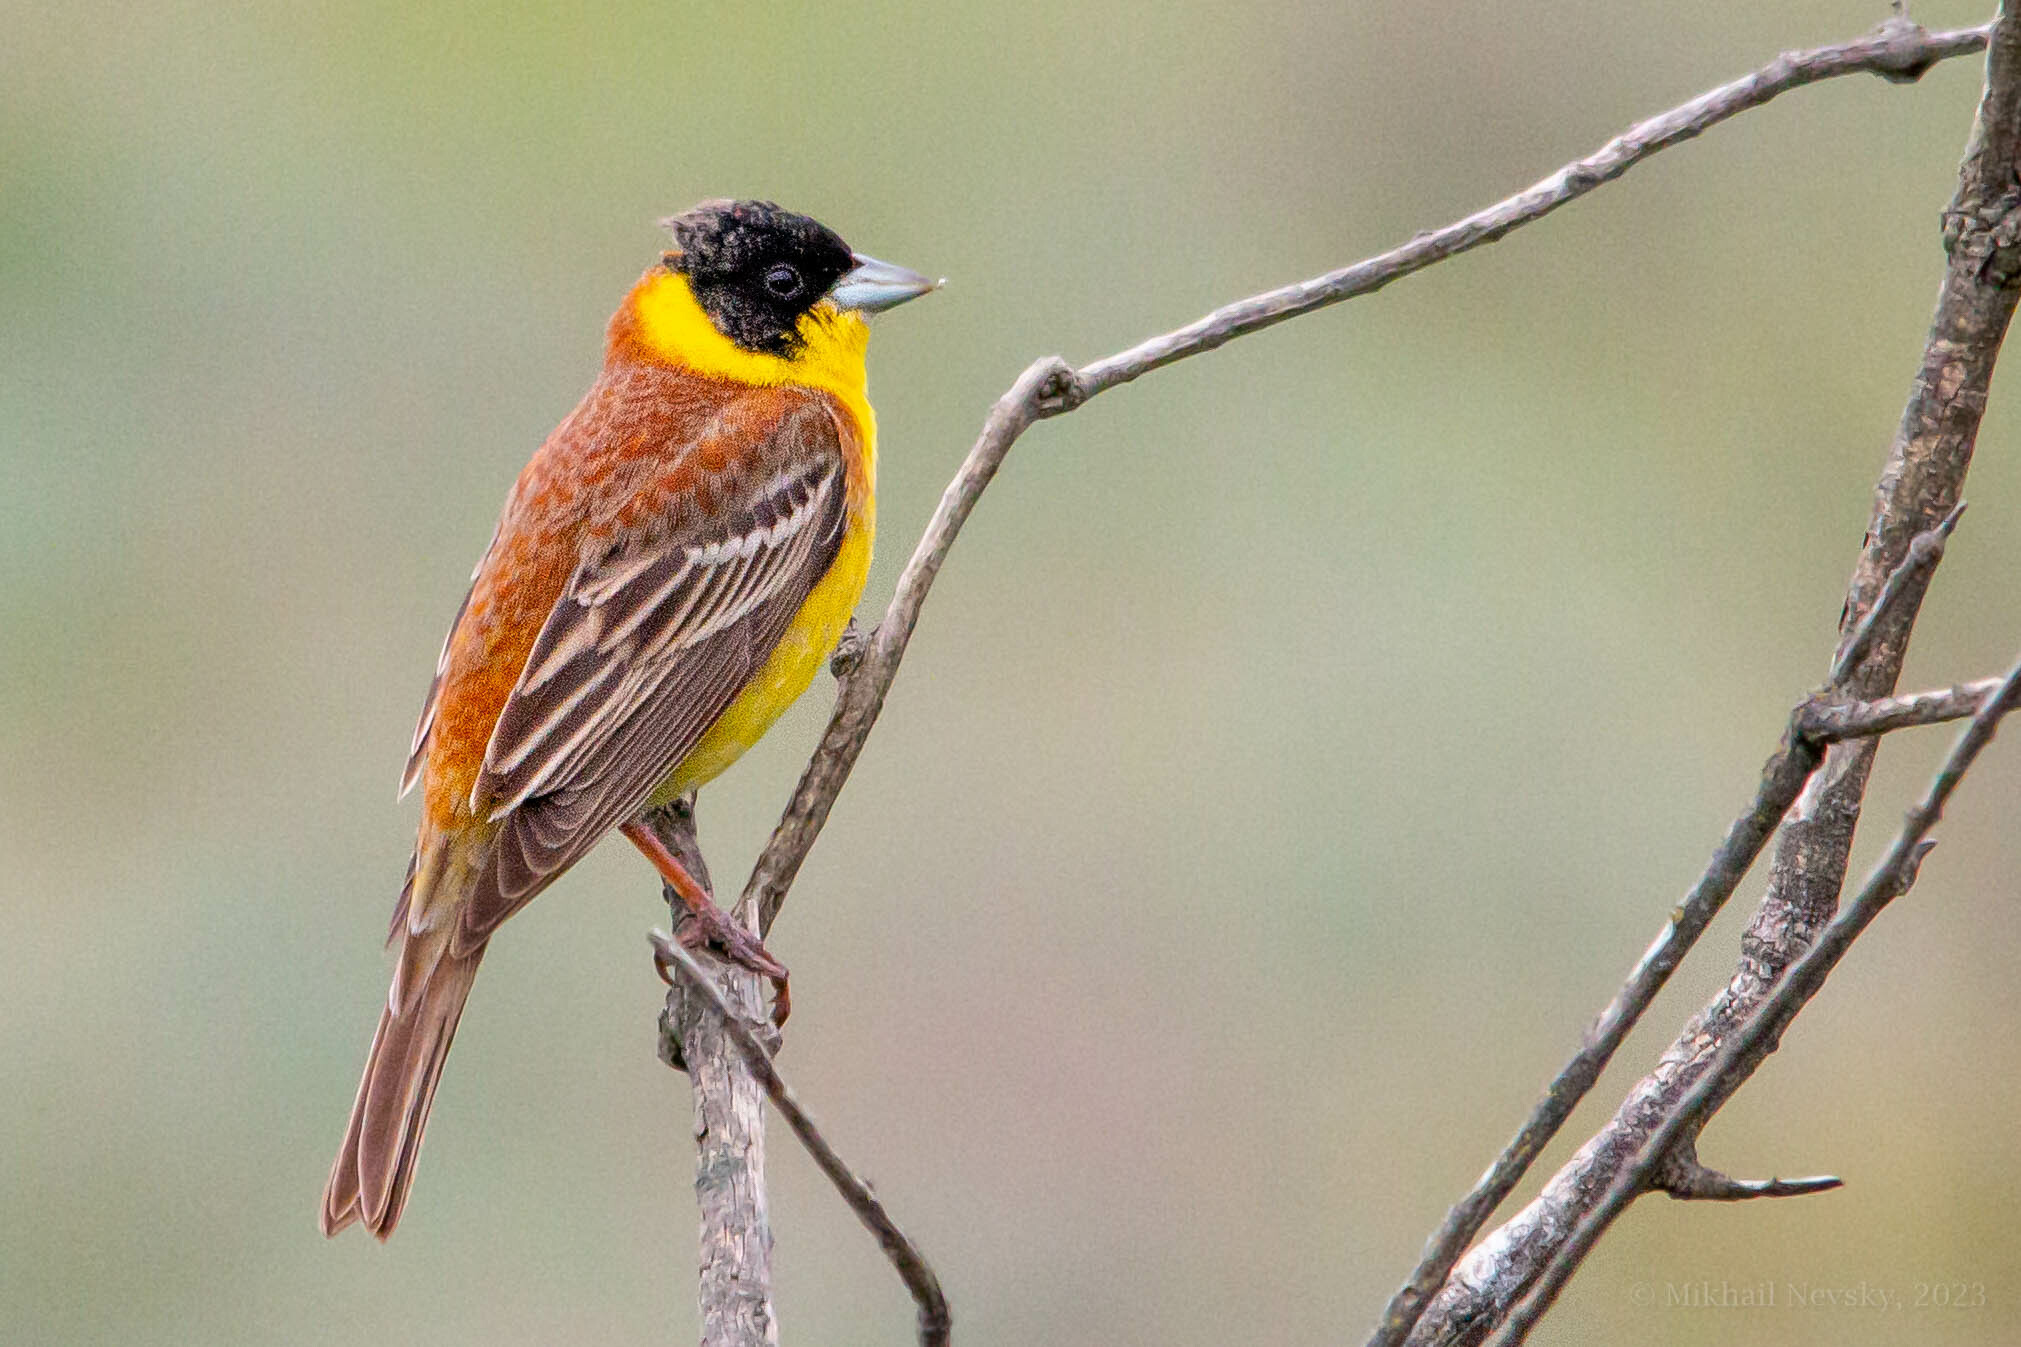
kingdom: Animalia
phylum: Chordata
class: Aves
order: Passeriformes
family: Emberizidae
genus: Emberiza
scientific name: Emberiza melanocephala
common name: Black-headed bunting
